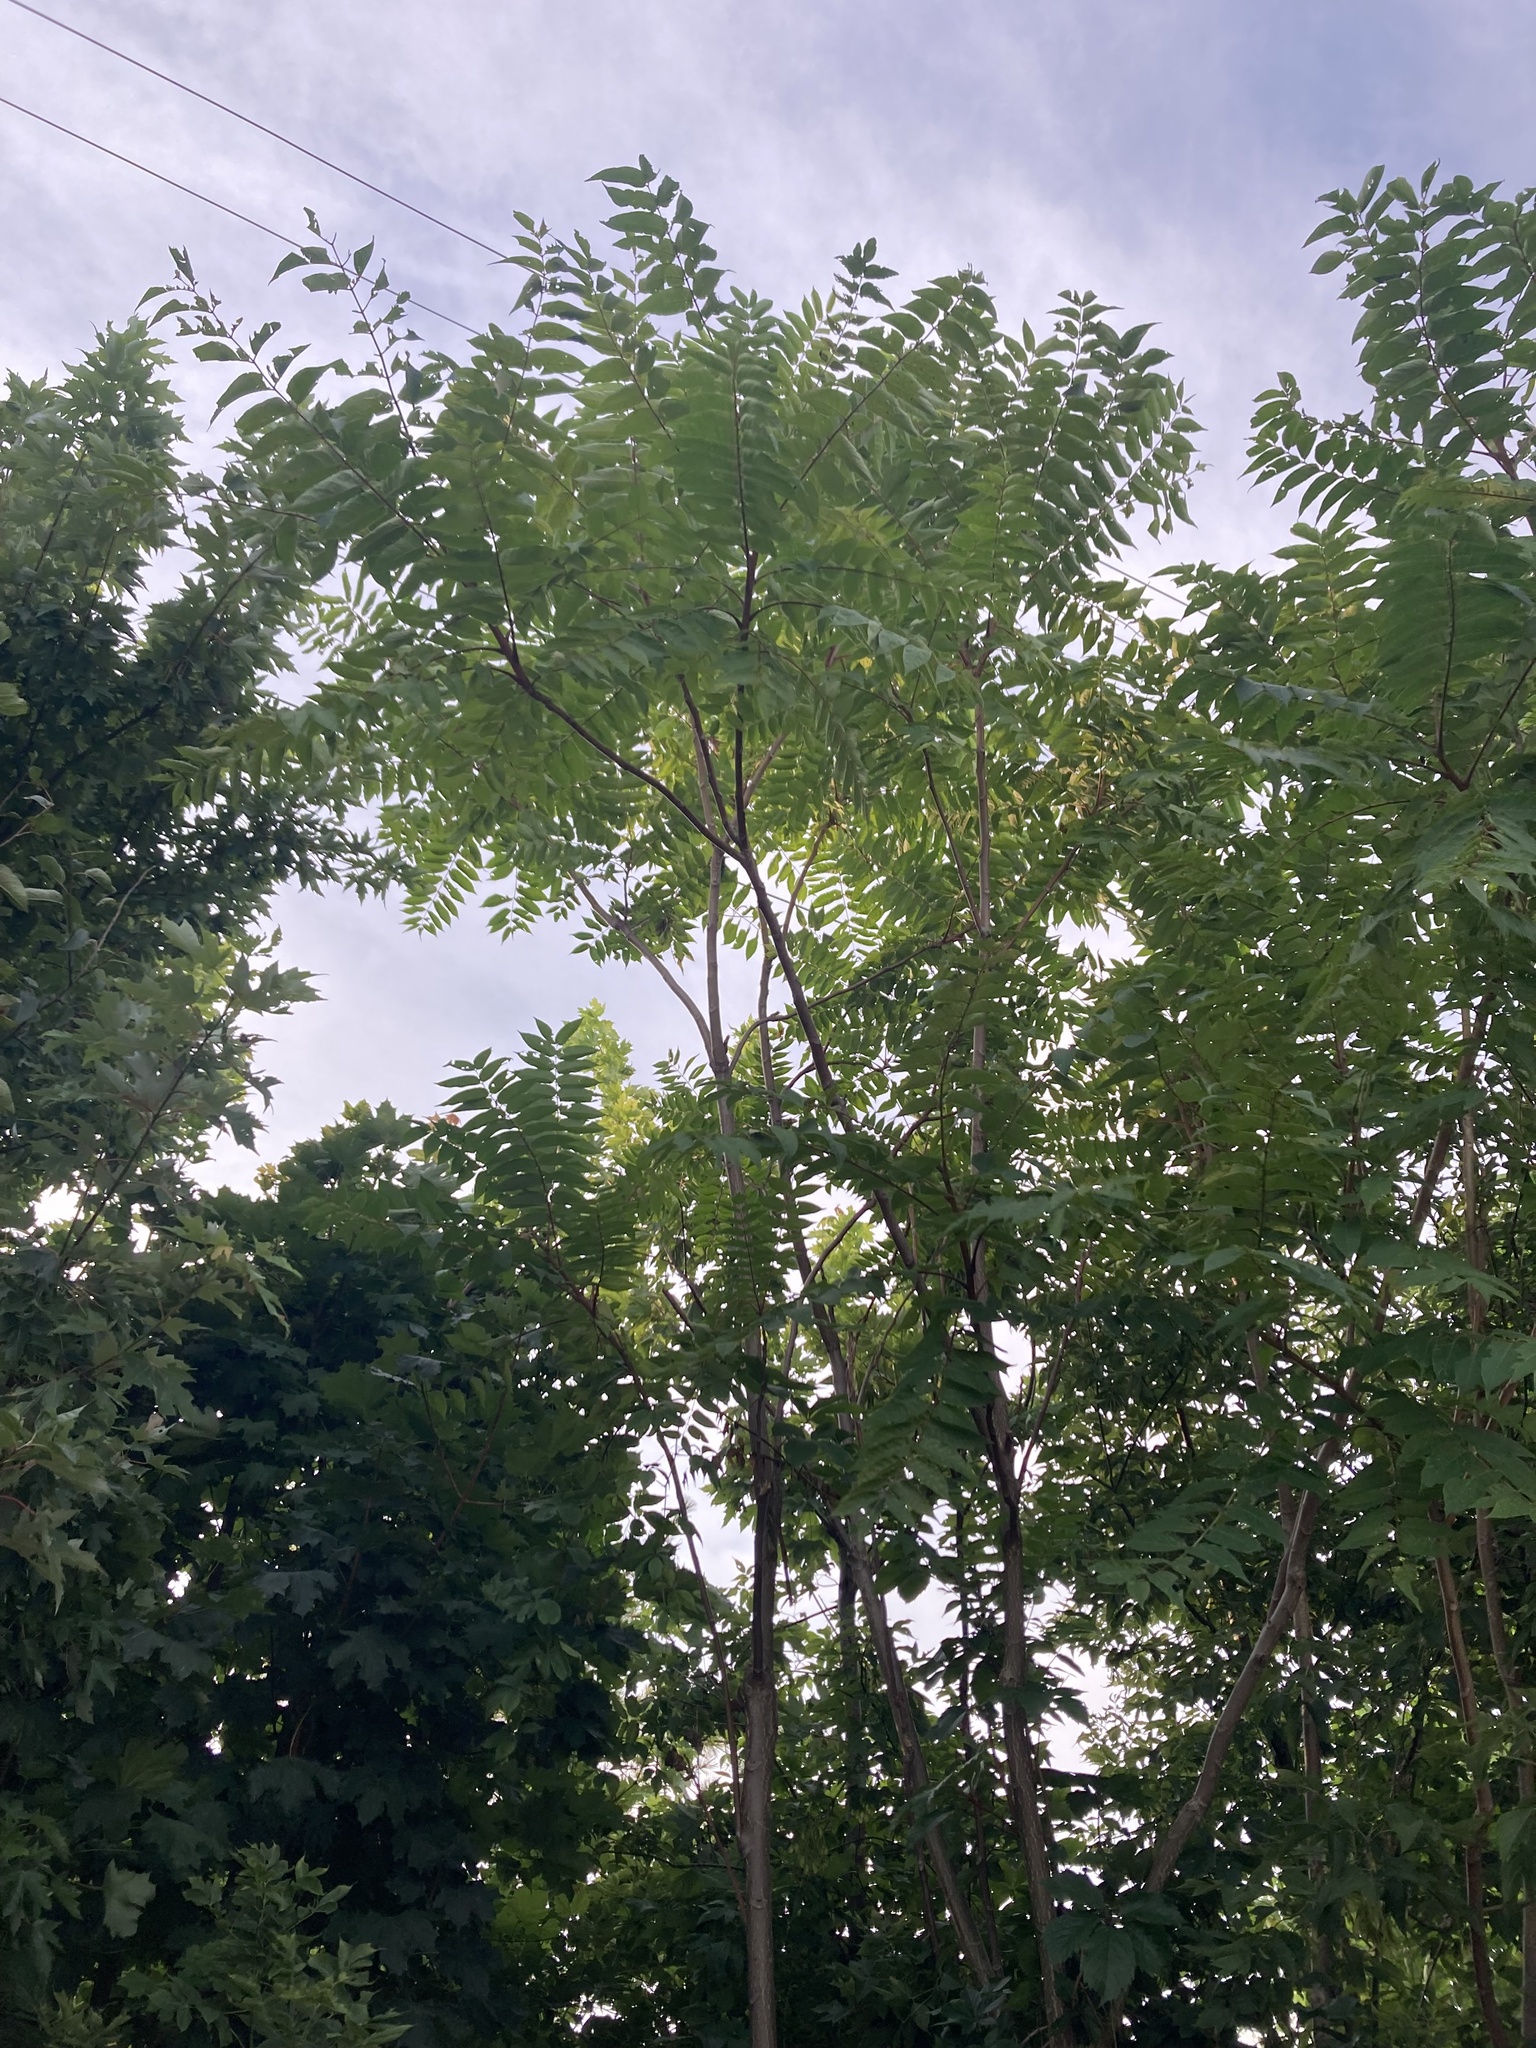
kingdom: Plantae
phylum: Tracheophyta
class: Magnoliopsida
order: Sapindales
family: Simaroubaceae
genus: Ailanthus
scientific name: Ailanthus altissima
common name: Tree-of-heaven
